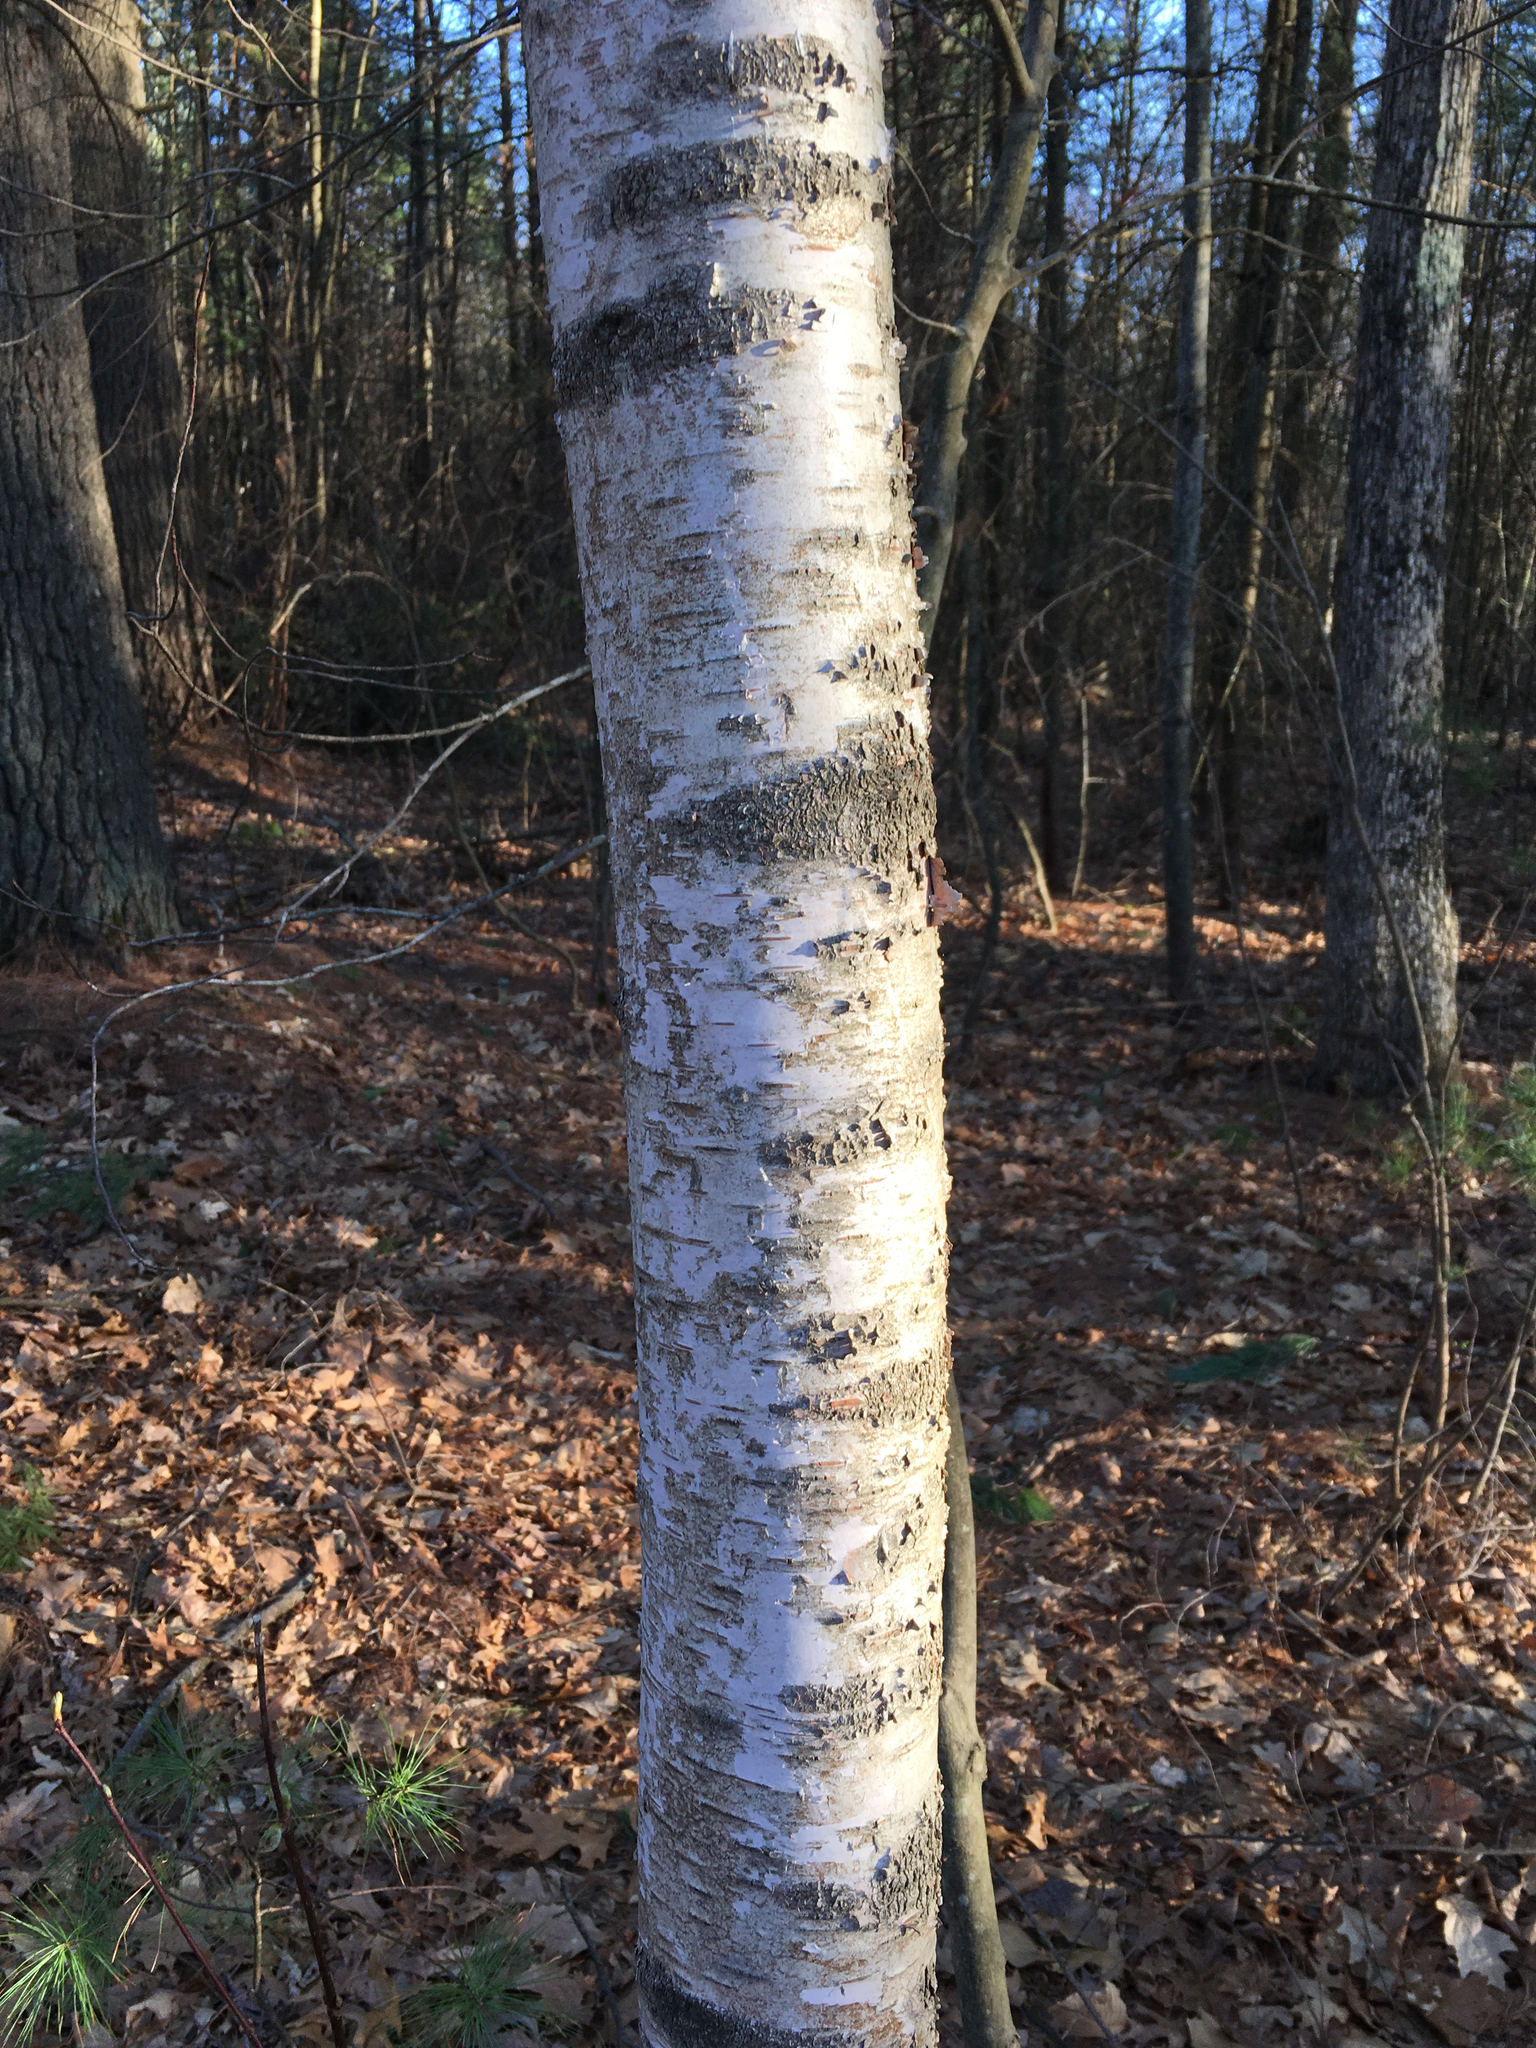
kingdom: Plantae
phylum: Tracheophyta
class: Magnoliopsida
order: Fagales
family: Betulaceae
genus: Betula
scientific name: Betula papyrifera
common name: Paper birch
